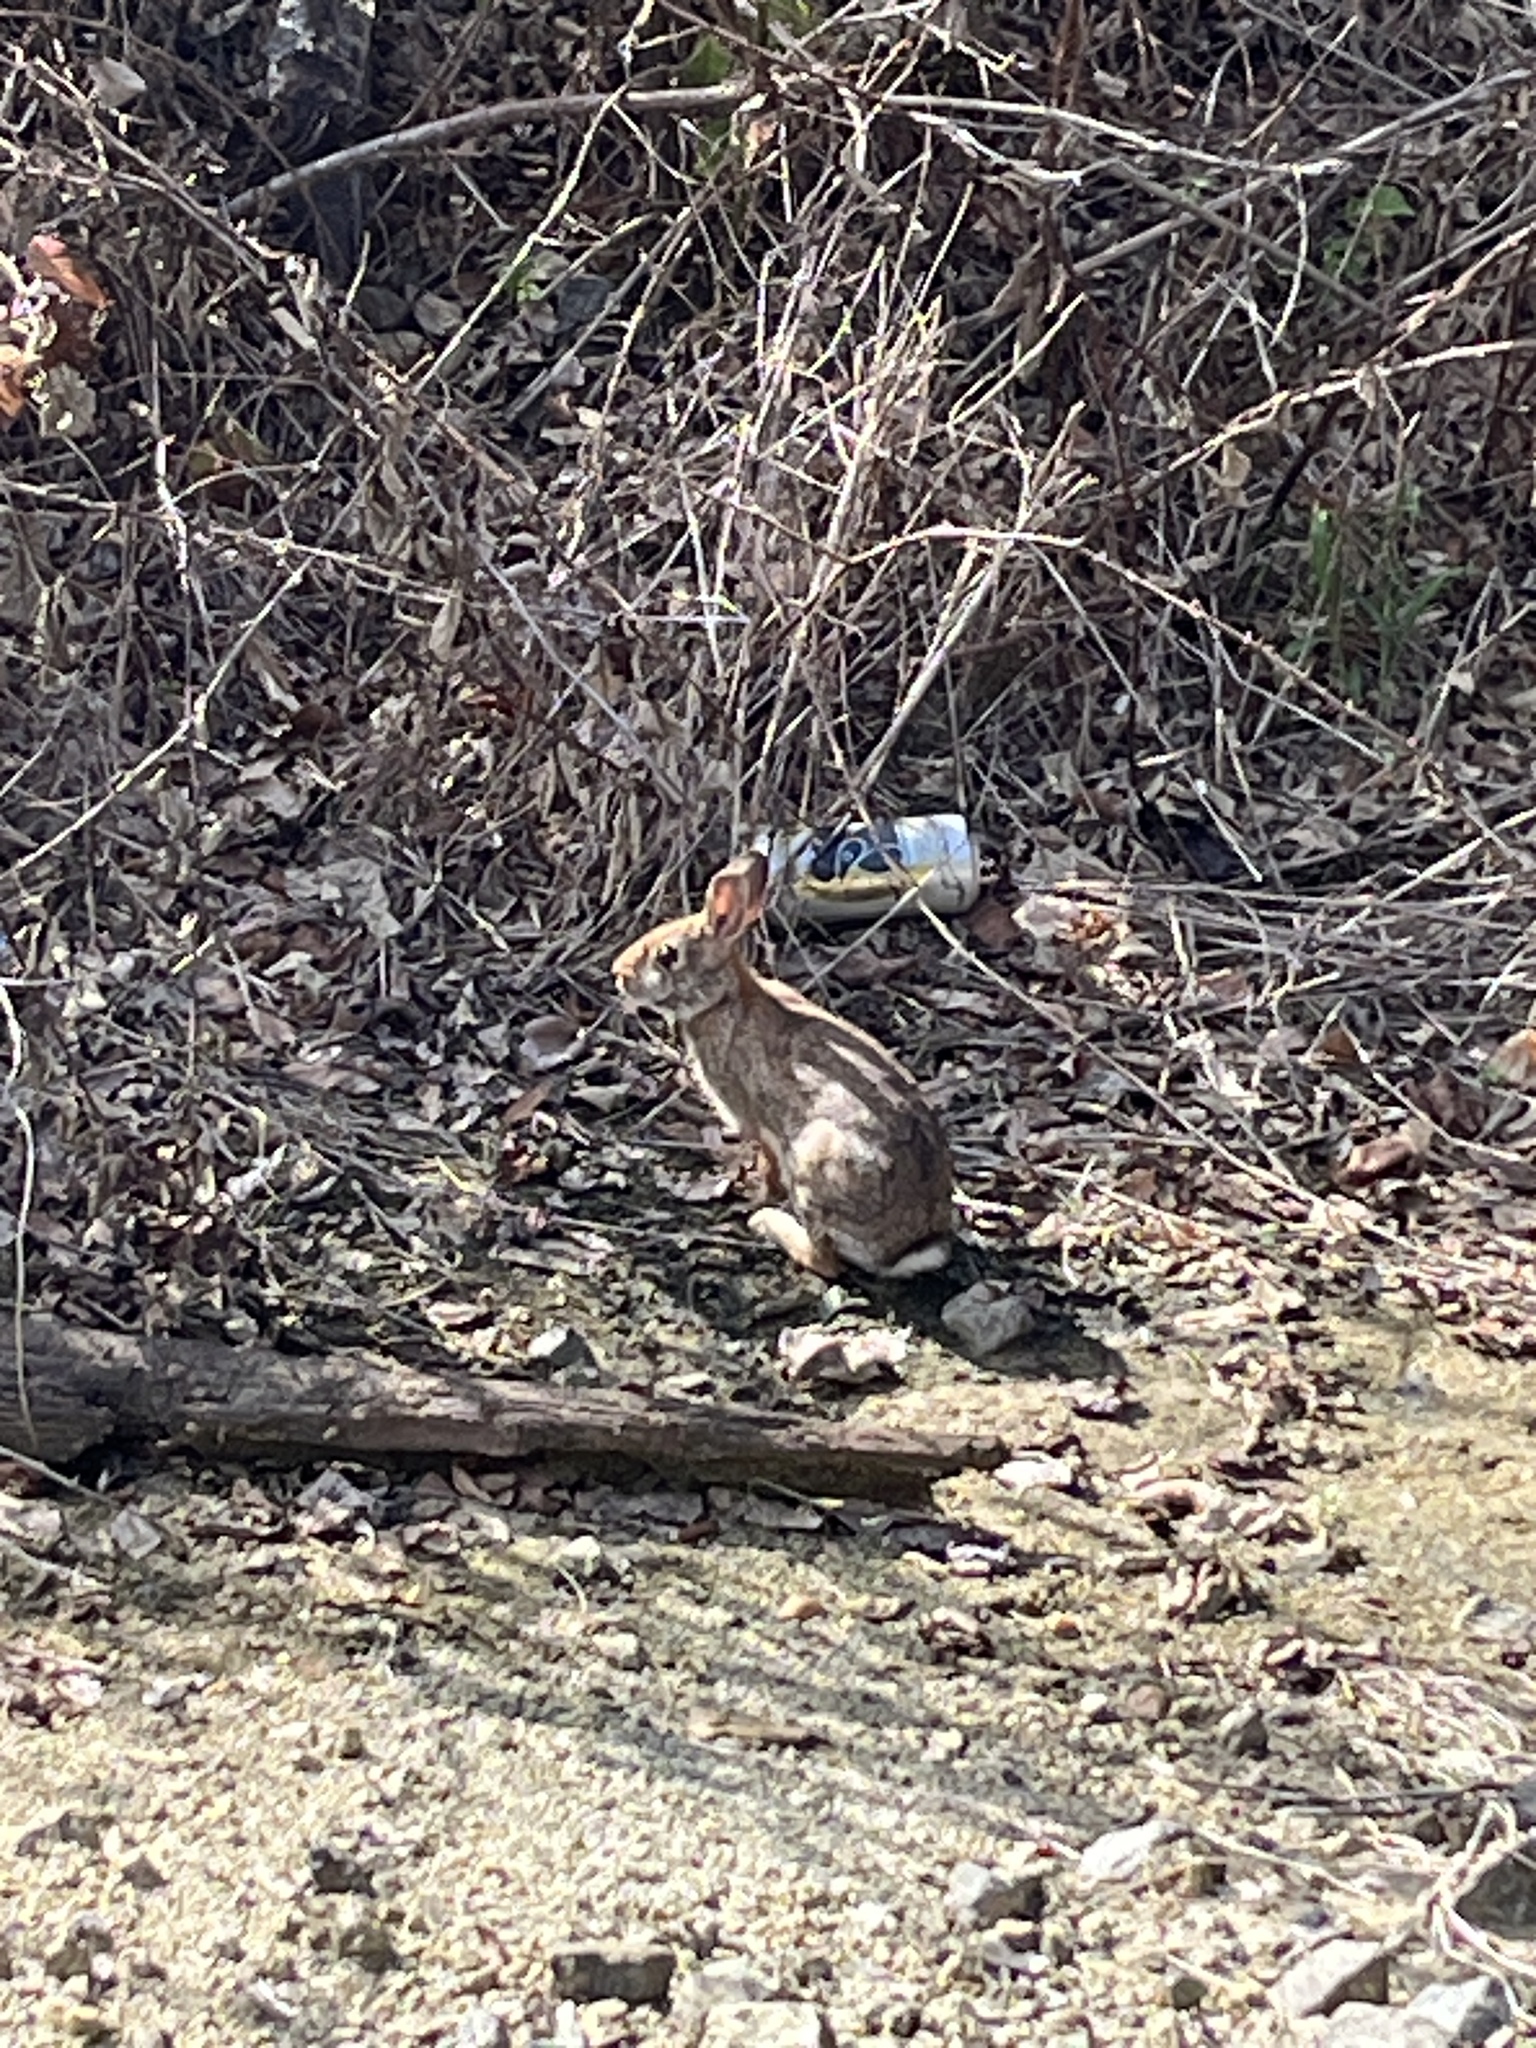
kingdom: Animalia
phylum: Chordata
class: Mammalia
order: Lagomorpha
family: Leporidae
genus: Sylvilagus
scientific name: Sylvilagus floridanus
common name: Eastern cottontail
